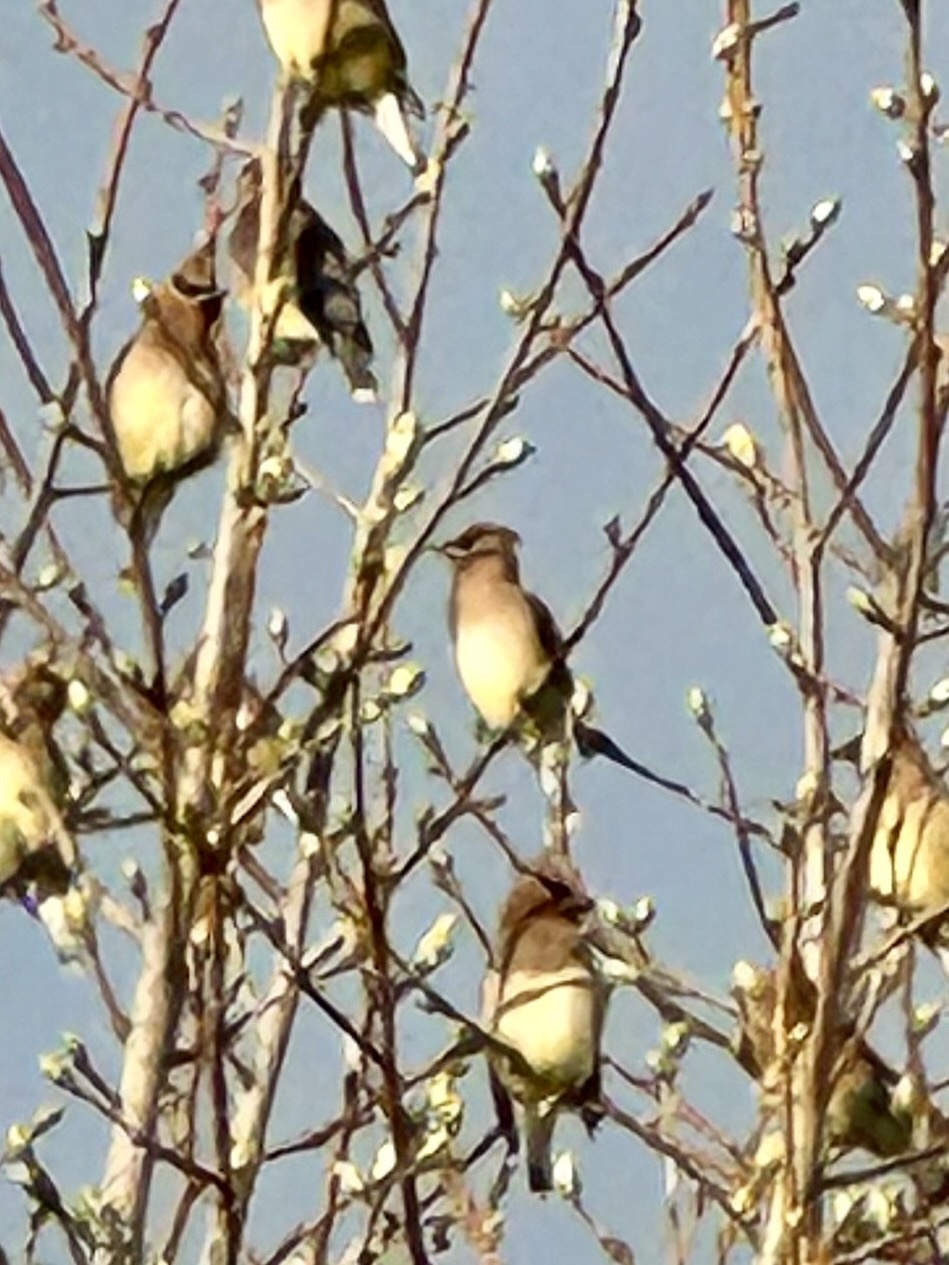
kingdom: Animalia
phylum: Chordata
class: Aves
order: Passeriformes
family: Bombycillidae
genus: Bombycilla
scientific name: Bombycilla cedrorum
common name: Cedar waxwing
